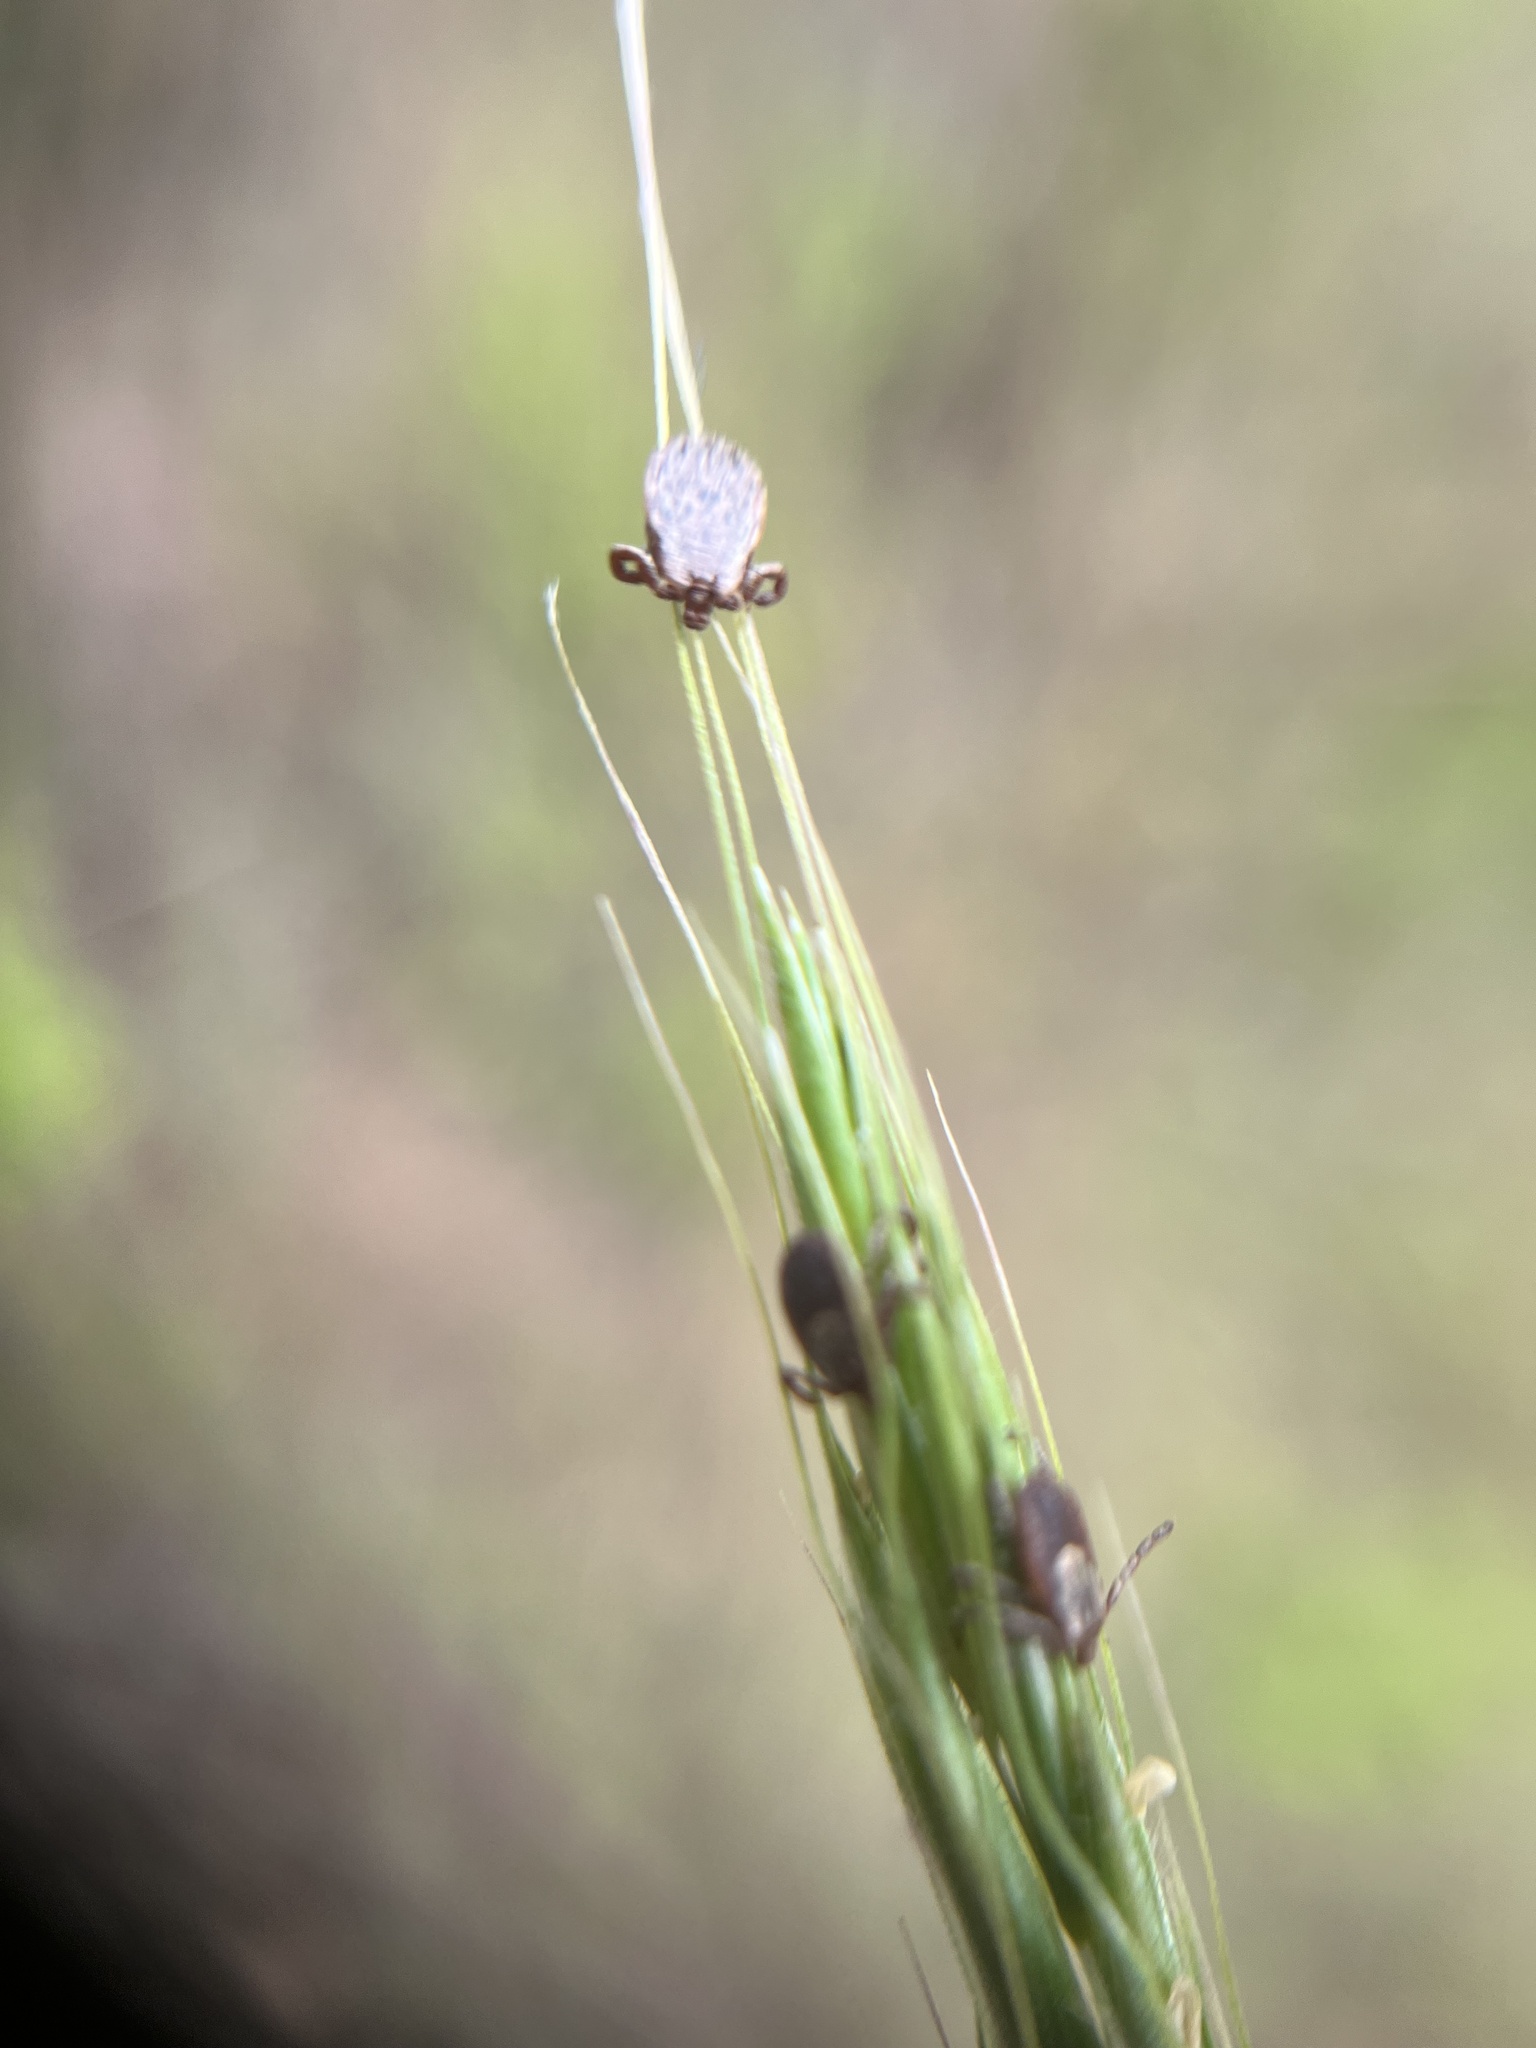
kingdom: Animalia
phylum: Arthropoda
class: Arachnida
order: Ixodida
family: Ixodidae
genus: Dermacentor
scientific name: Dermacentor occidentalis
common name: Net tick
